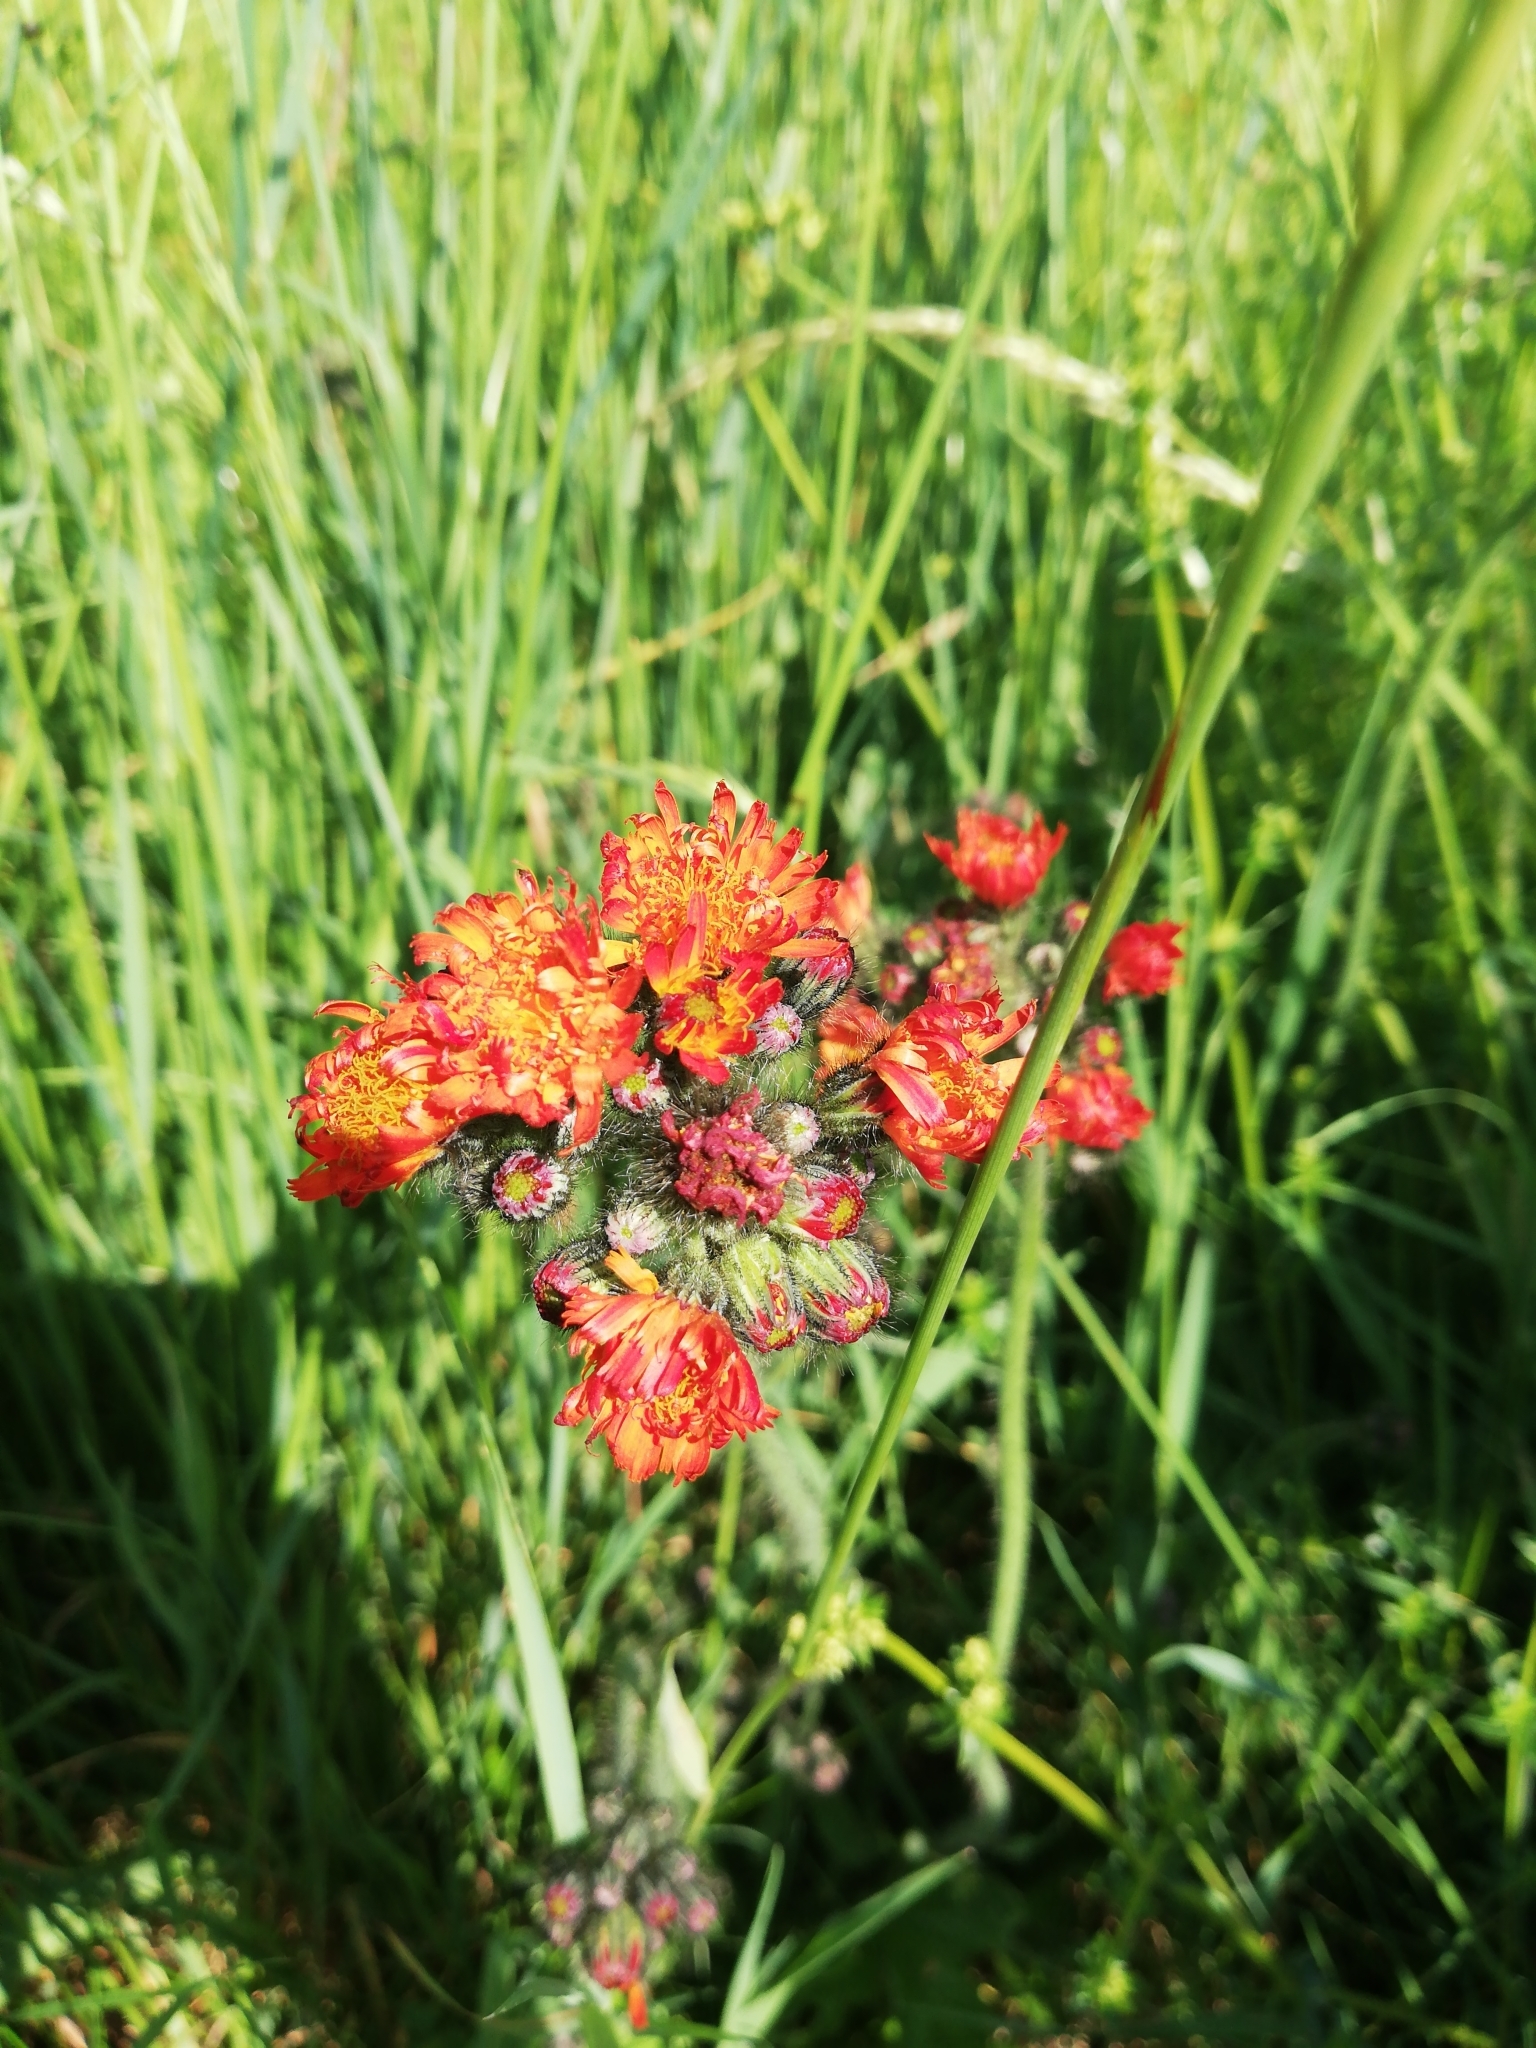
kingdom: Plantae
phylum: Tracheophyta
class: Magnoliopsida
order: Asterales
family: Asteraceae
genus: Pilosella
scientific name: Pilosella aurantiaca
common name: Fox-and-cubs
